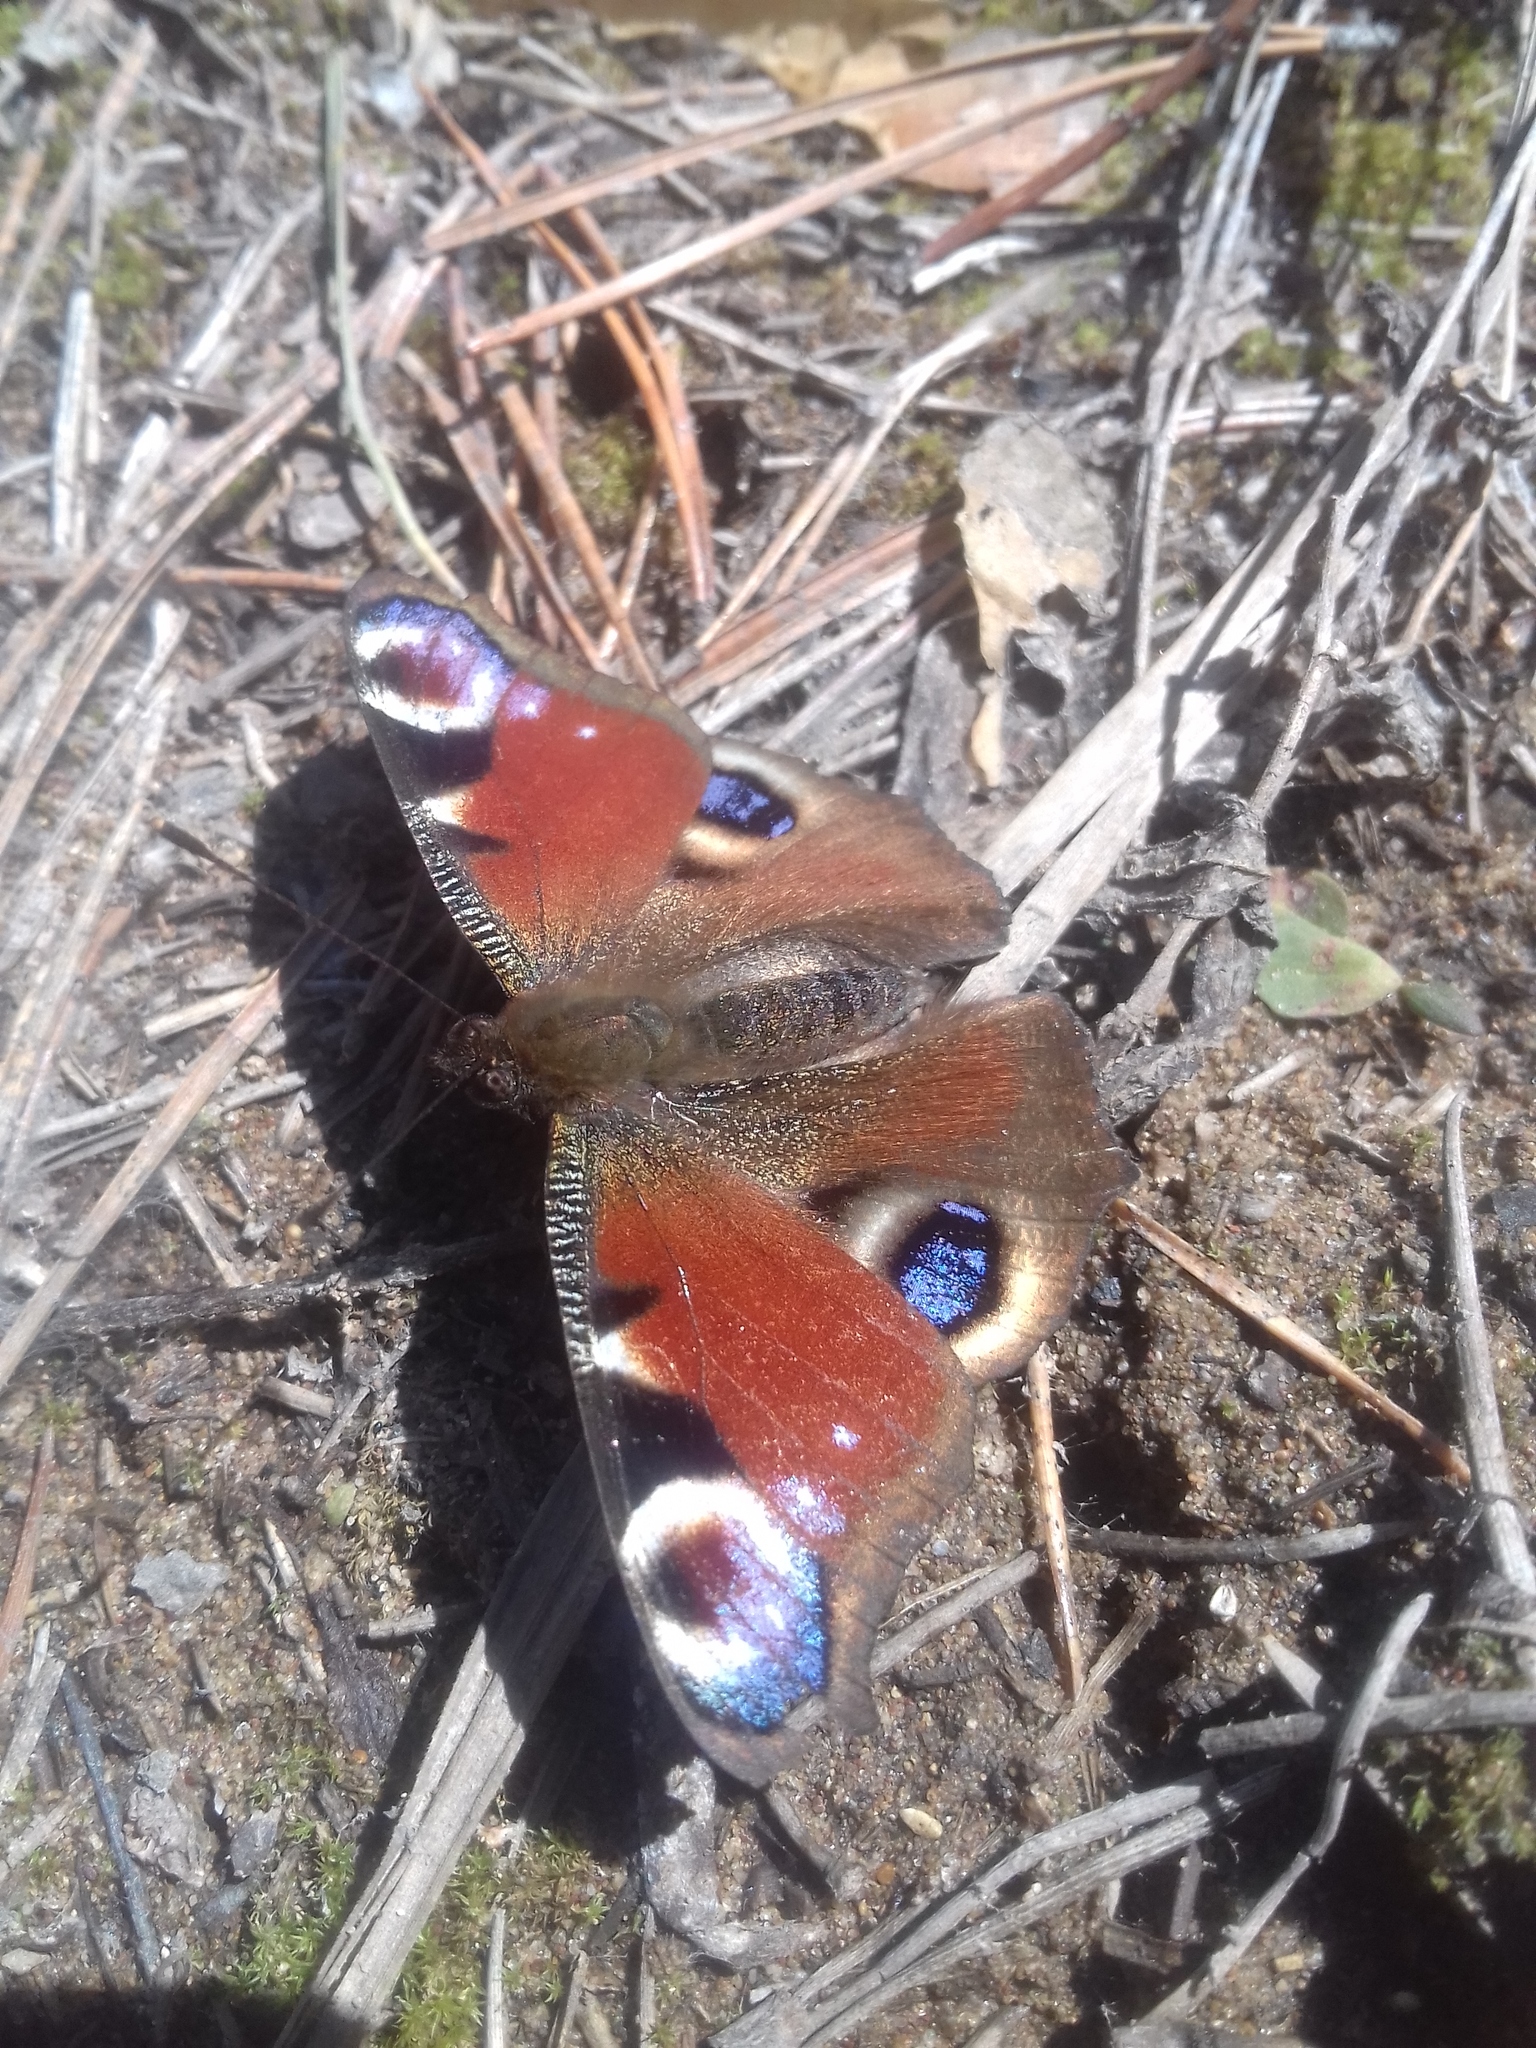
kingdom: Animalia
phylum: Arthropoda
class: Insecta
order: Lepidoptera
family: Nymphalidae
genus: Aglais
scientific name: Aglais io
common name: Peacock
